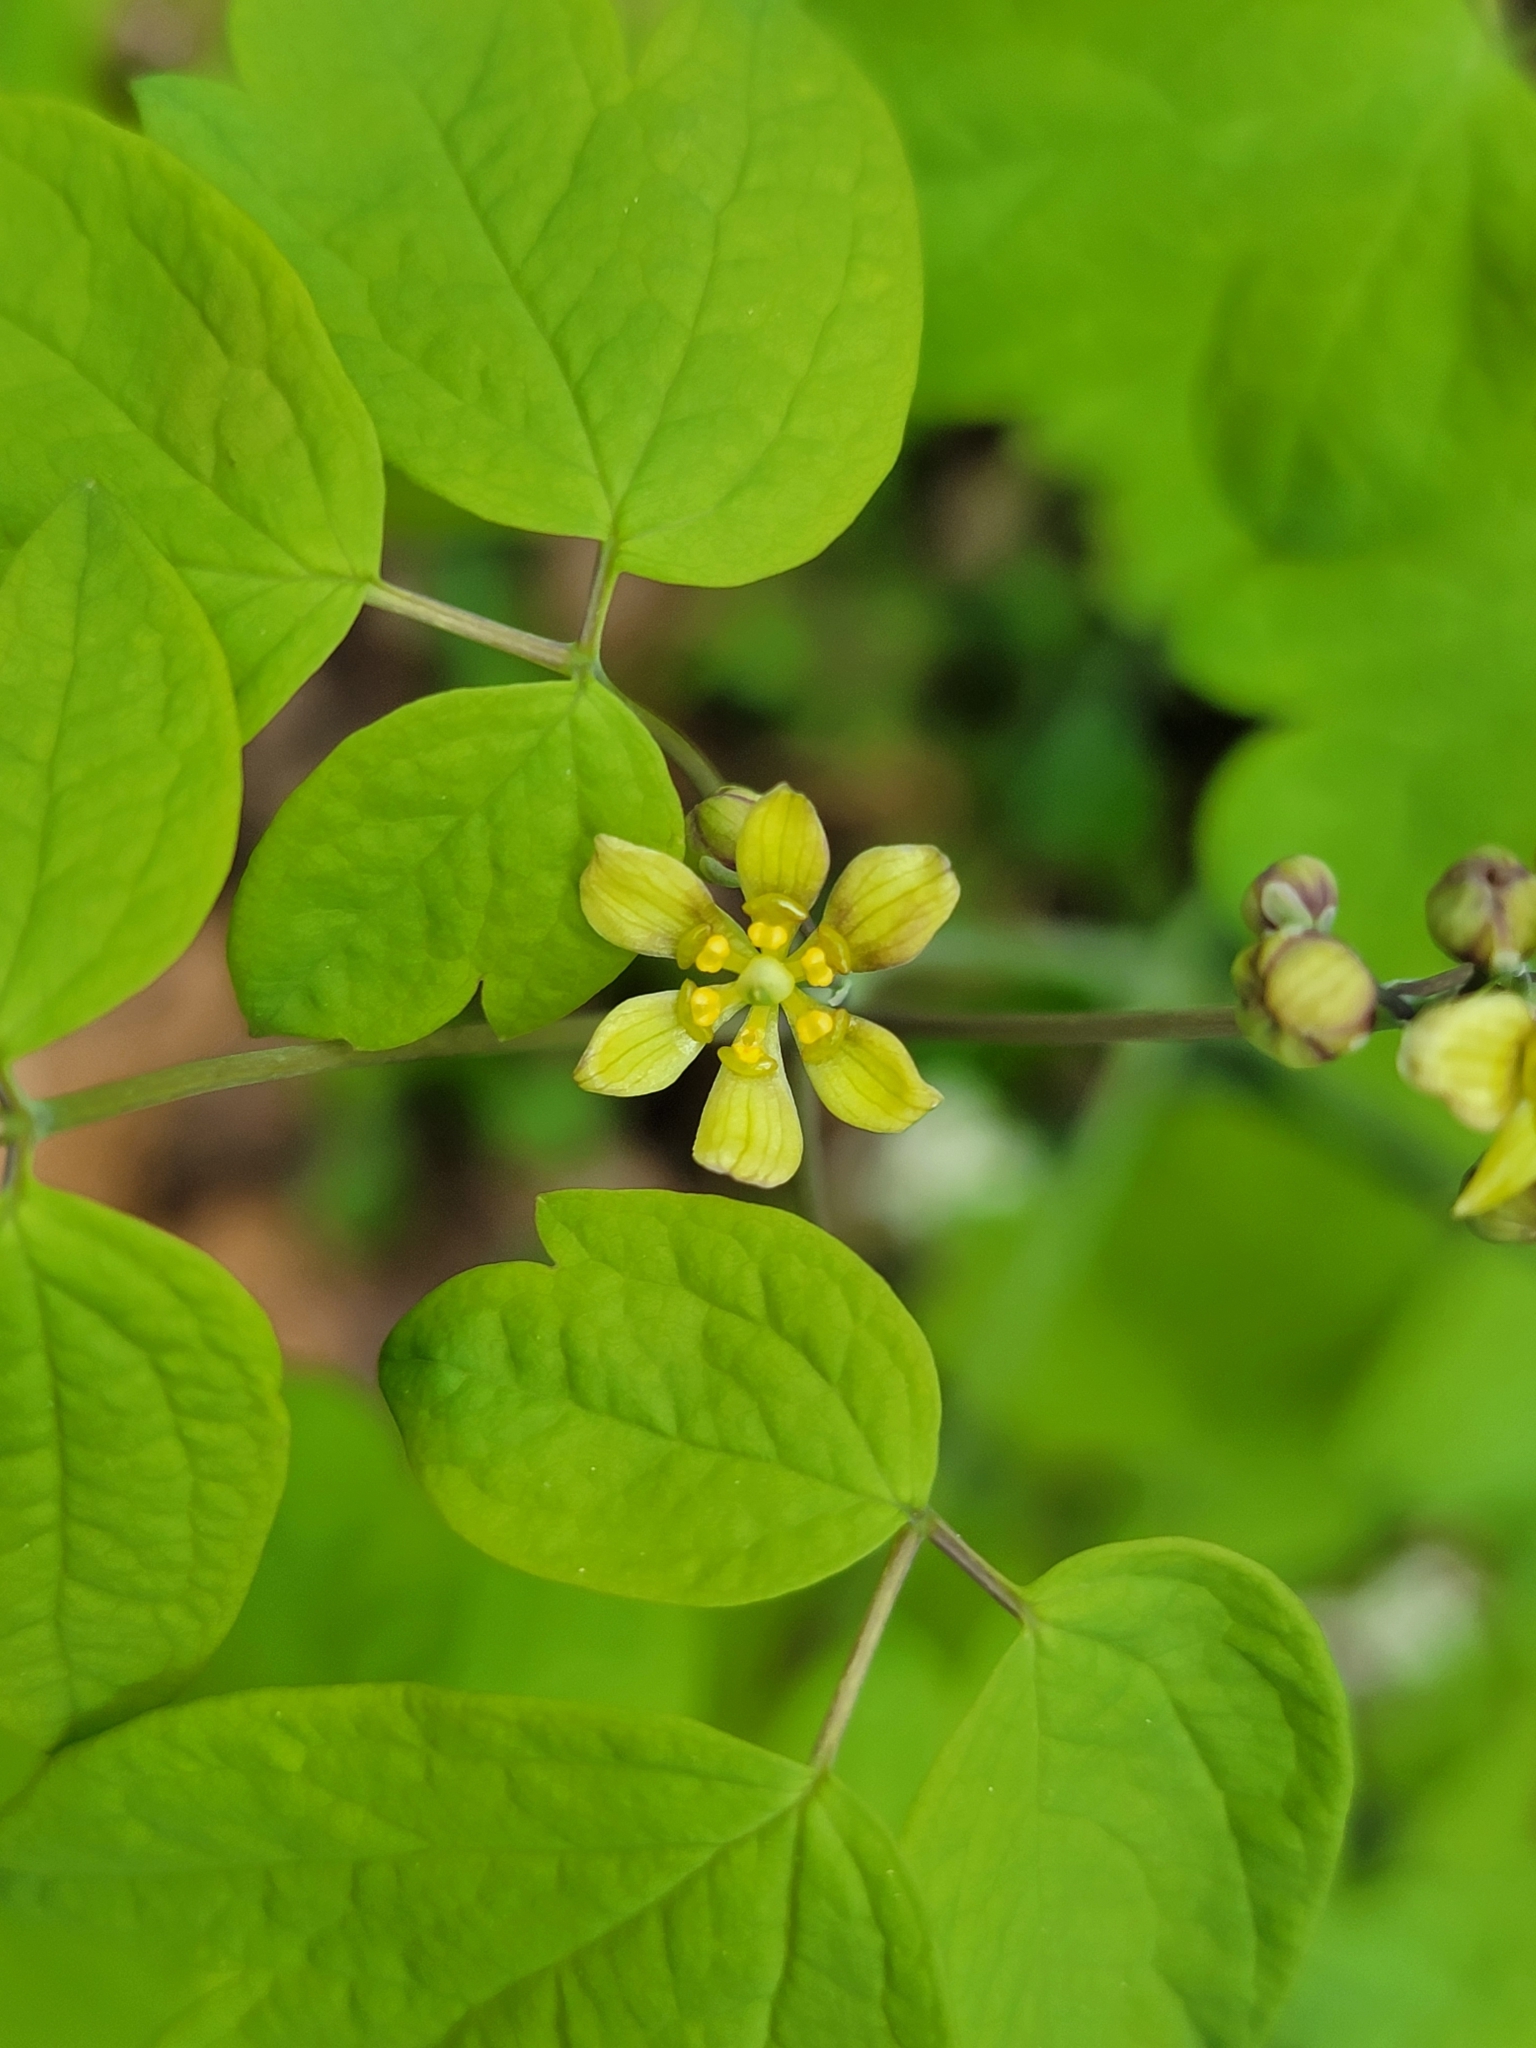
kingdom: Plantae
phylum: Tracheophyta
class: Magnoliopsida
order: Ranunculales
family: Berberidaceae
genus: Caulophyllum
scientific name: Caulophyllum thalictroides
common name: Blue cohosh
